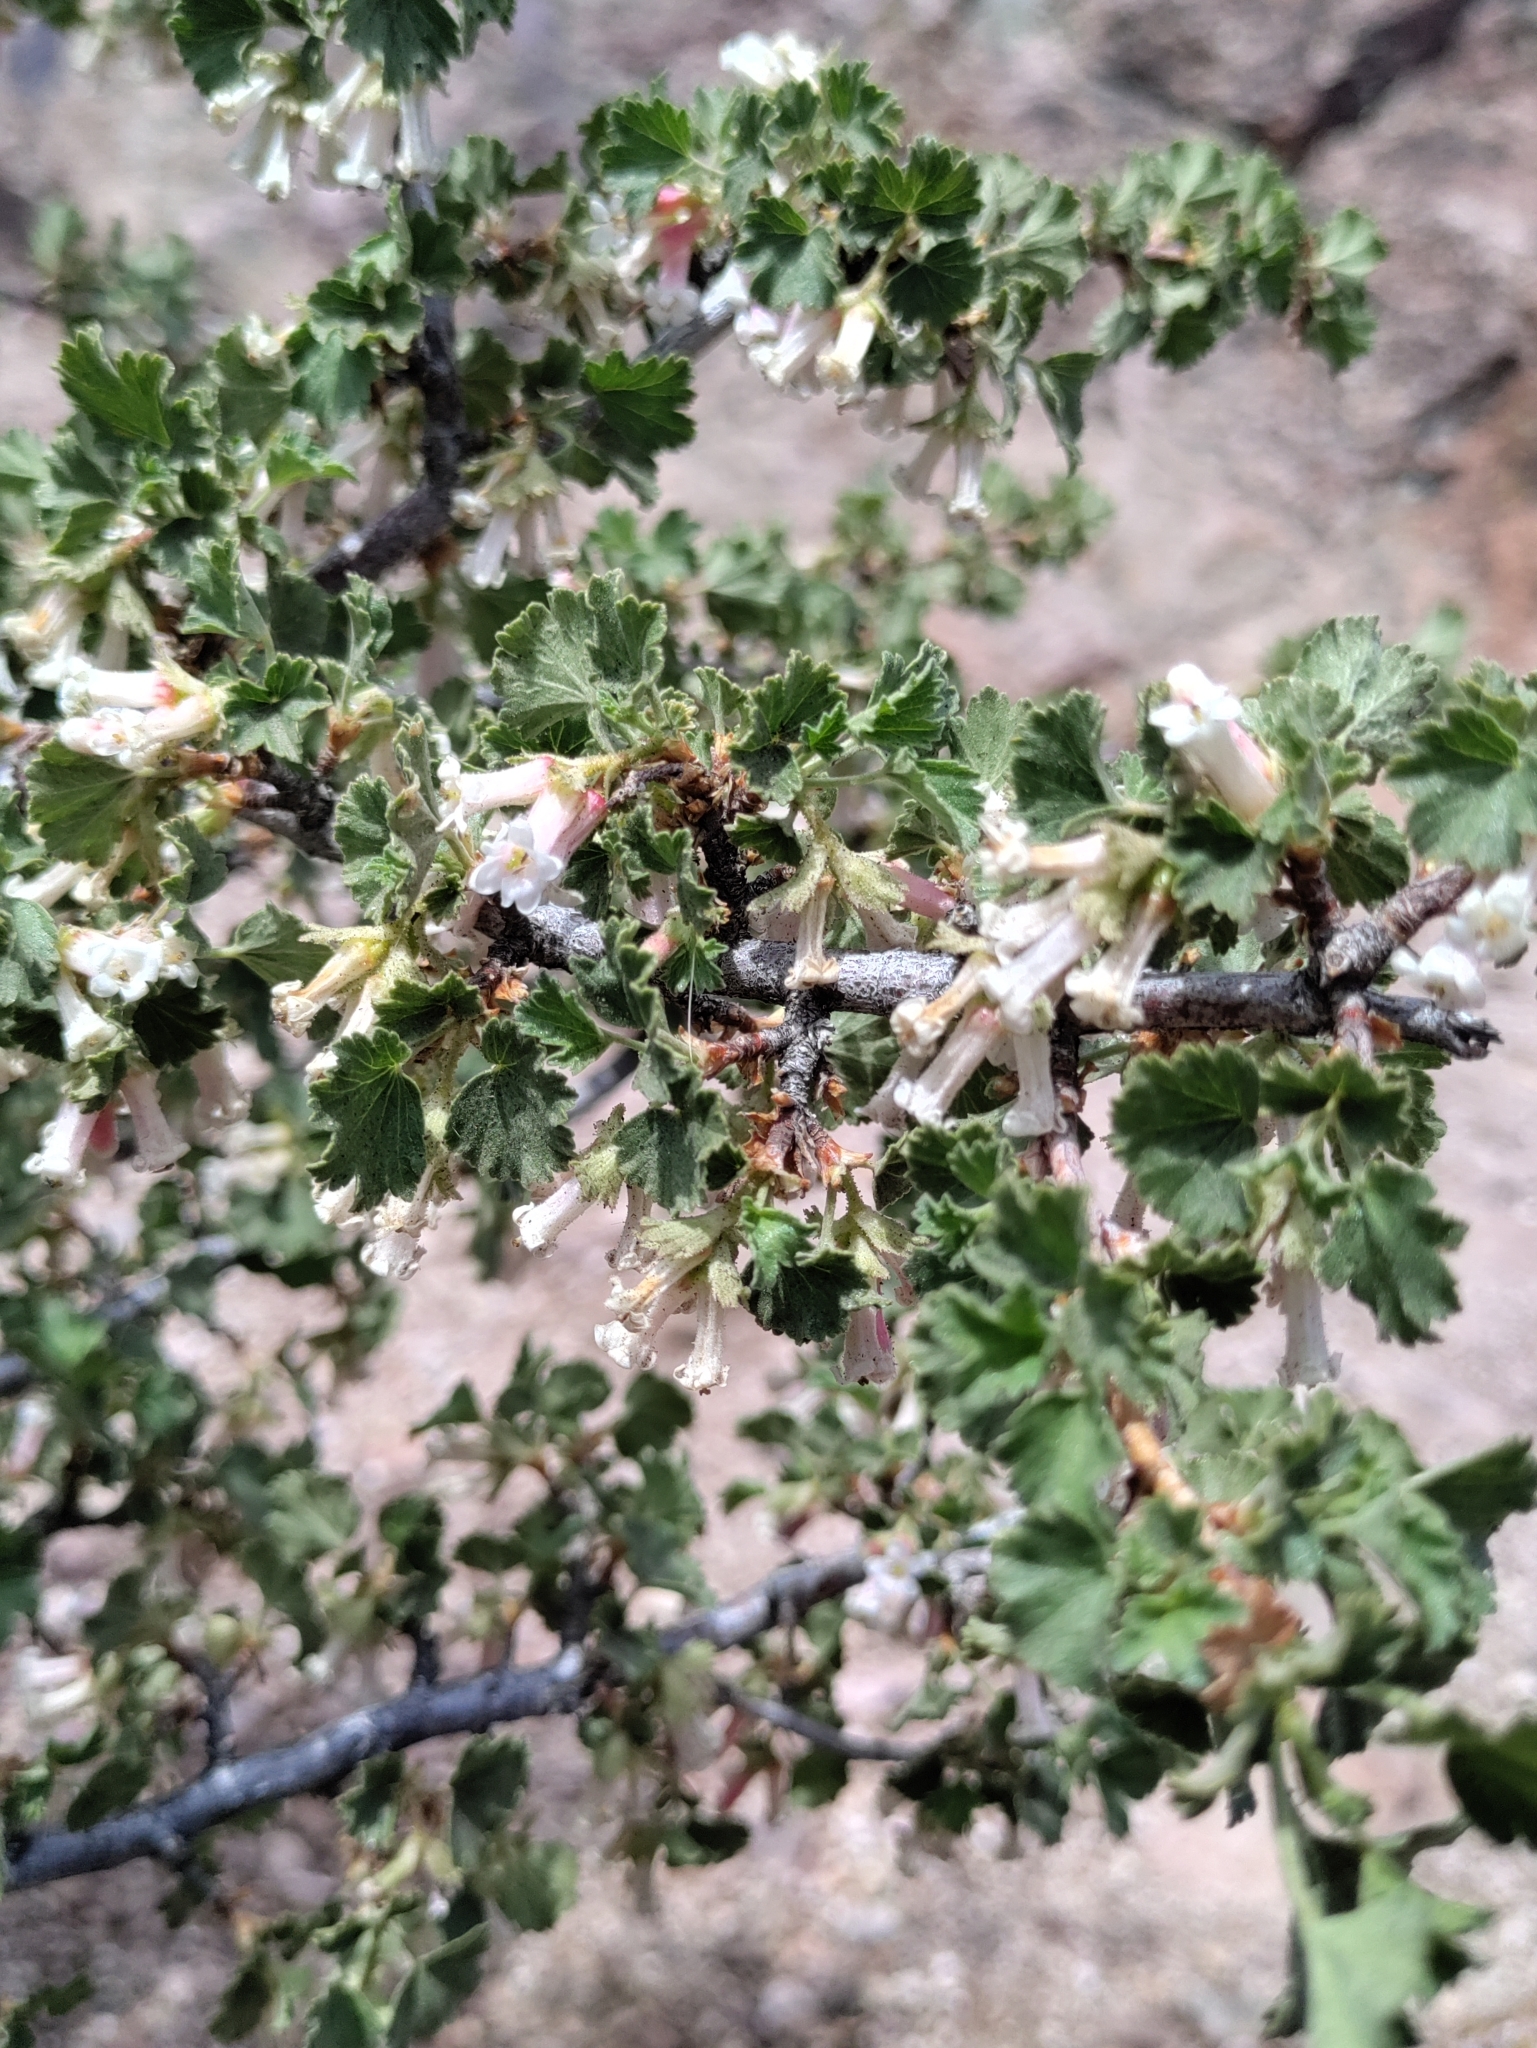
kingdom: Plantae
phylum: Tracheophyta
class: Magnoliopsida
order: Saxifragales
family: Grossulariaceae
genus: Ribes
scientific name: Ribes cereum
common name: Wax currant
